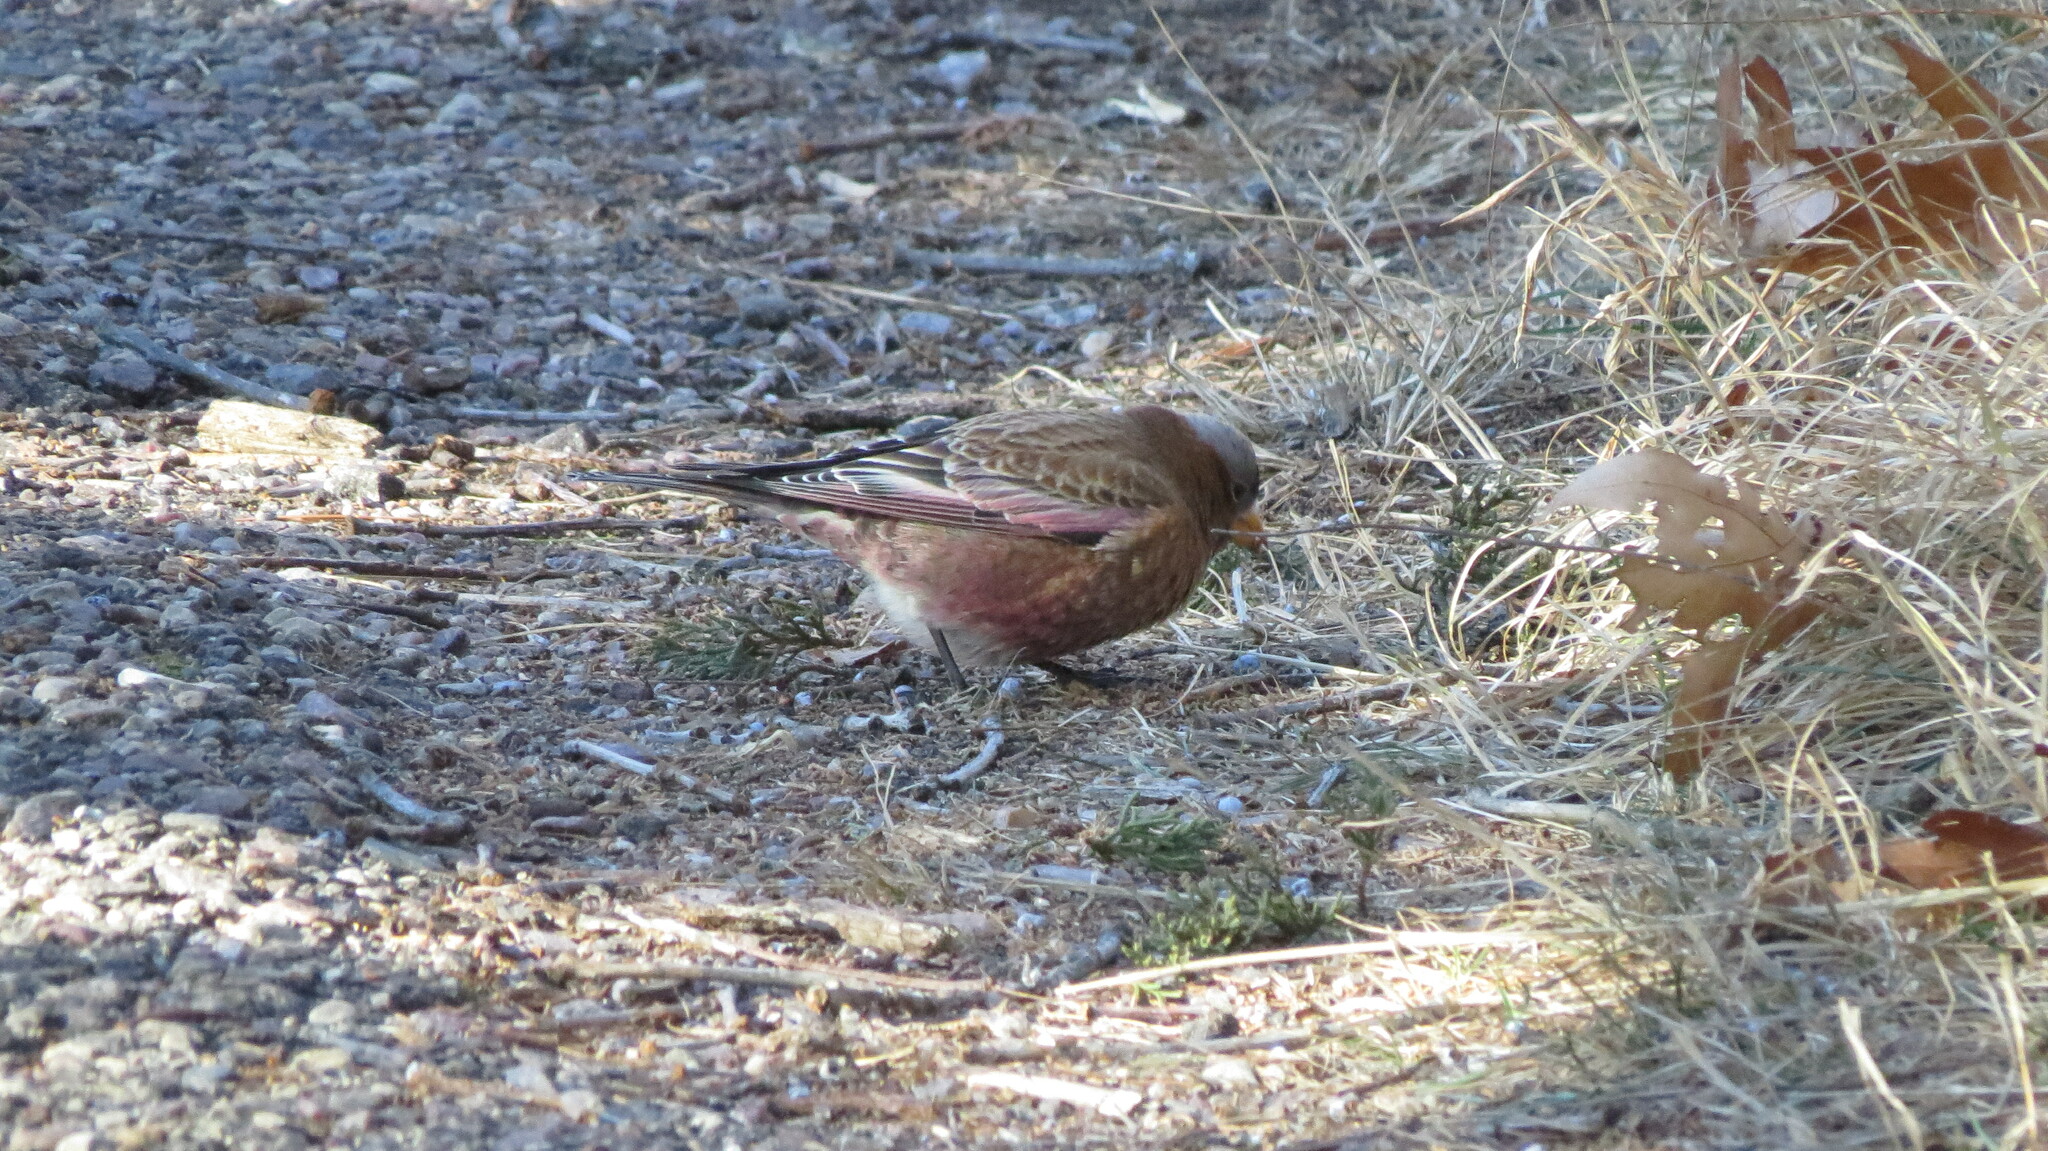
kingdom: Animalia
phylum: Chordata
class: Aves
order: Passeriformes
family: Fringillidae
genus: Leucosticte
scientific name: Leucosticte tephrocotis
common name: Gray-crowned rosy-finch
